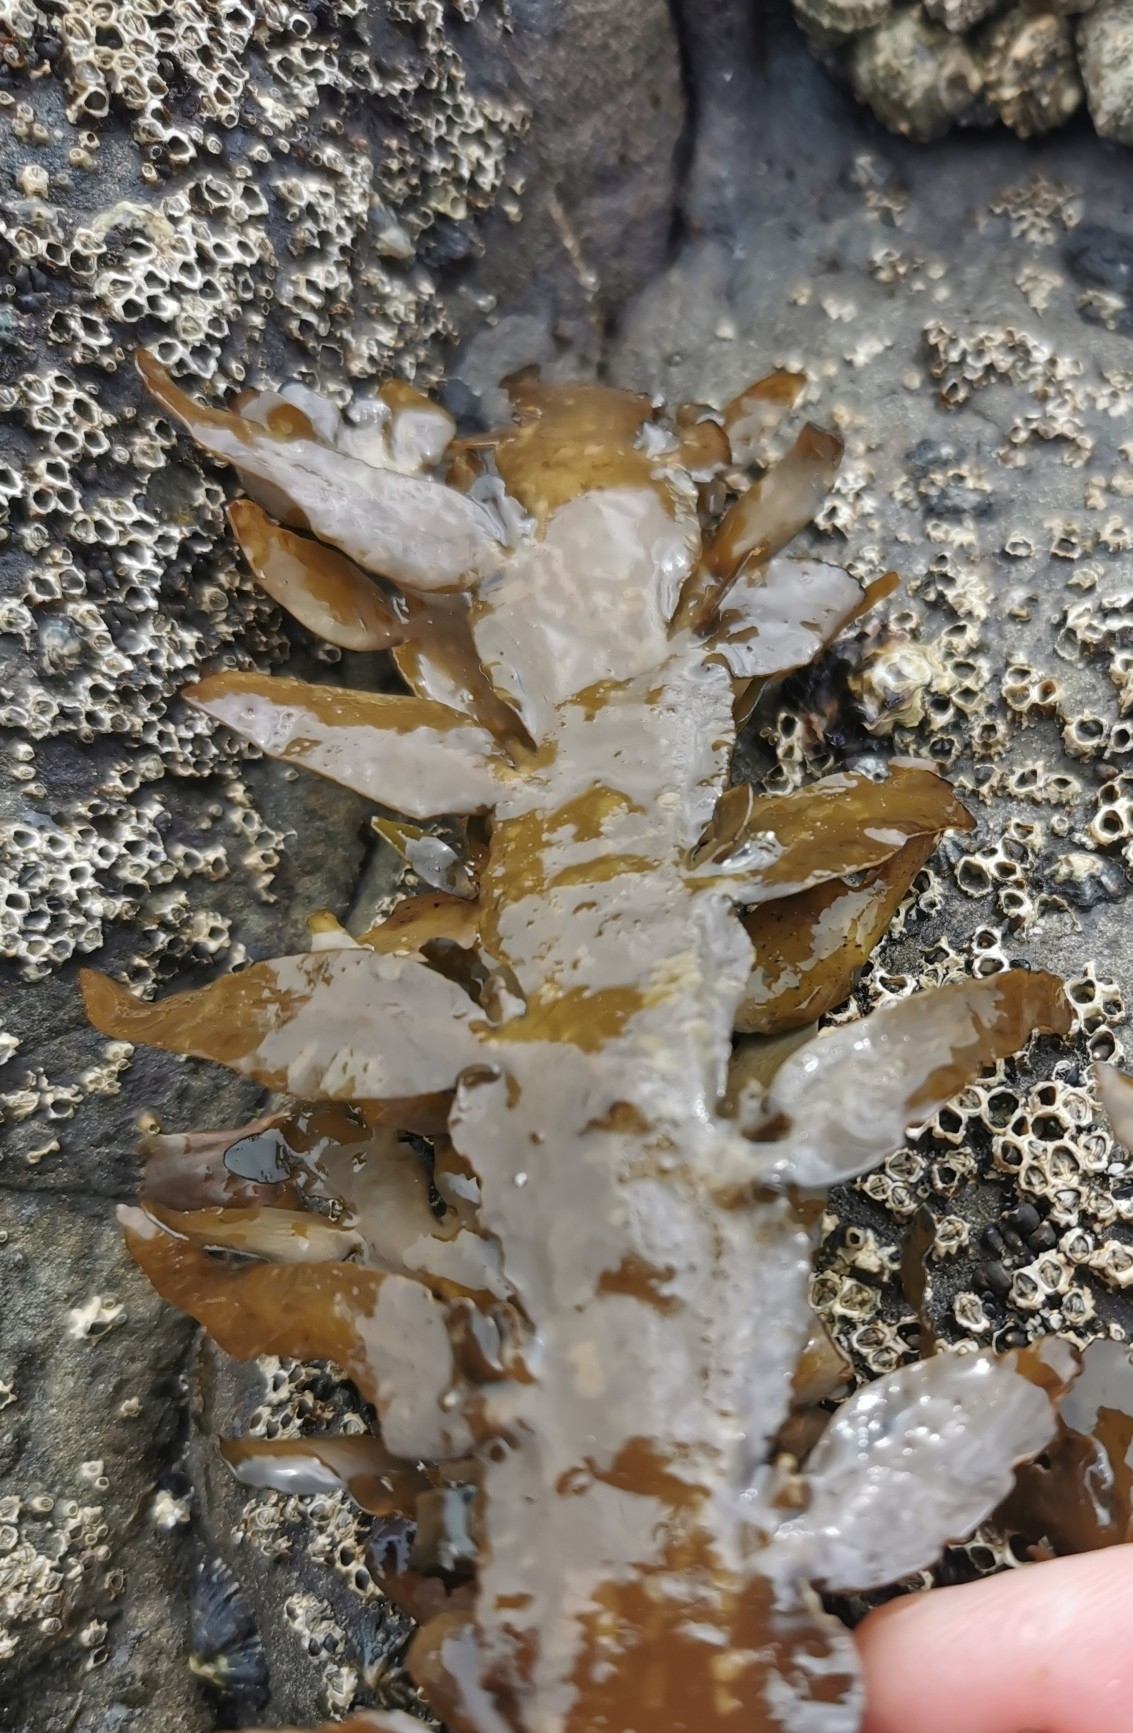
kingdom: Chromista
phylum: Ochrophyta
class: Phaeophyceae
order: Fucales
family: Sargassaceae
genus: Carpophyllum
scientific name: Carpophyllum maschalocarpum
